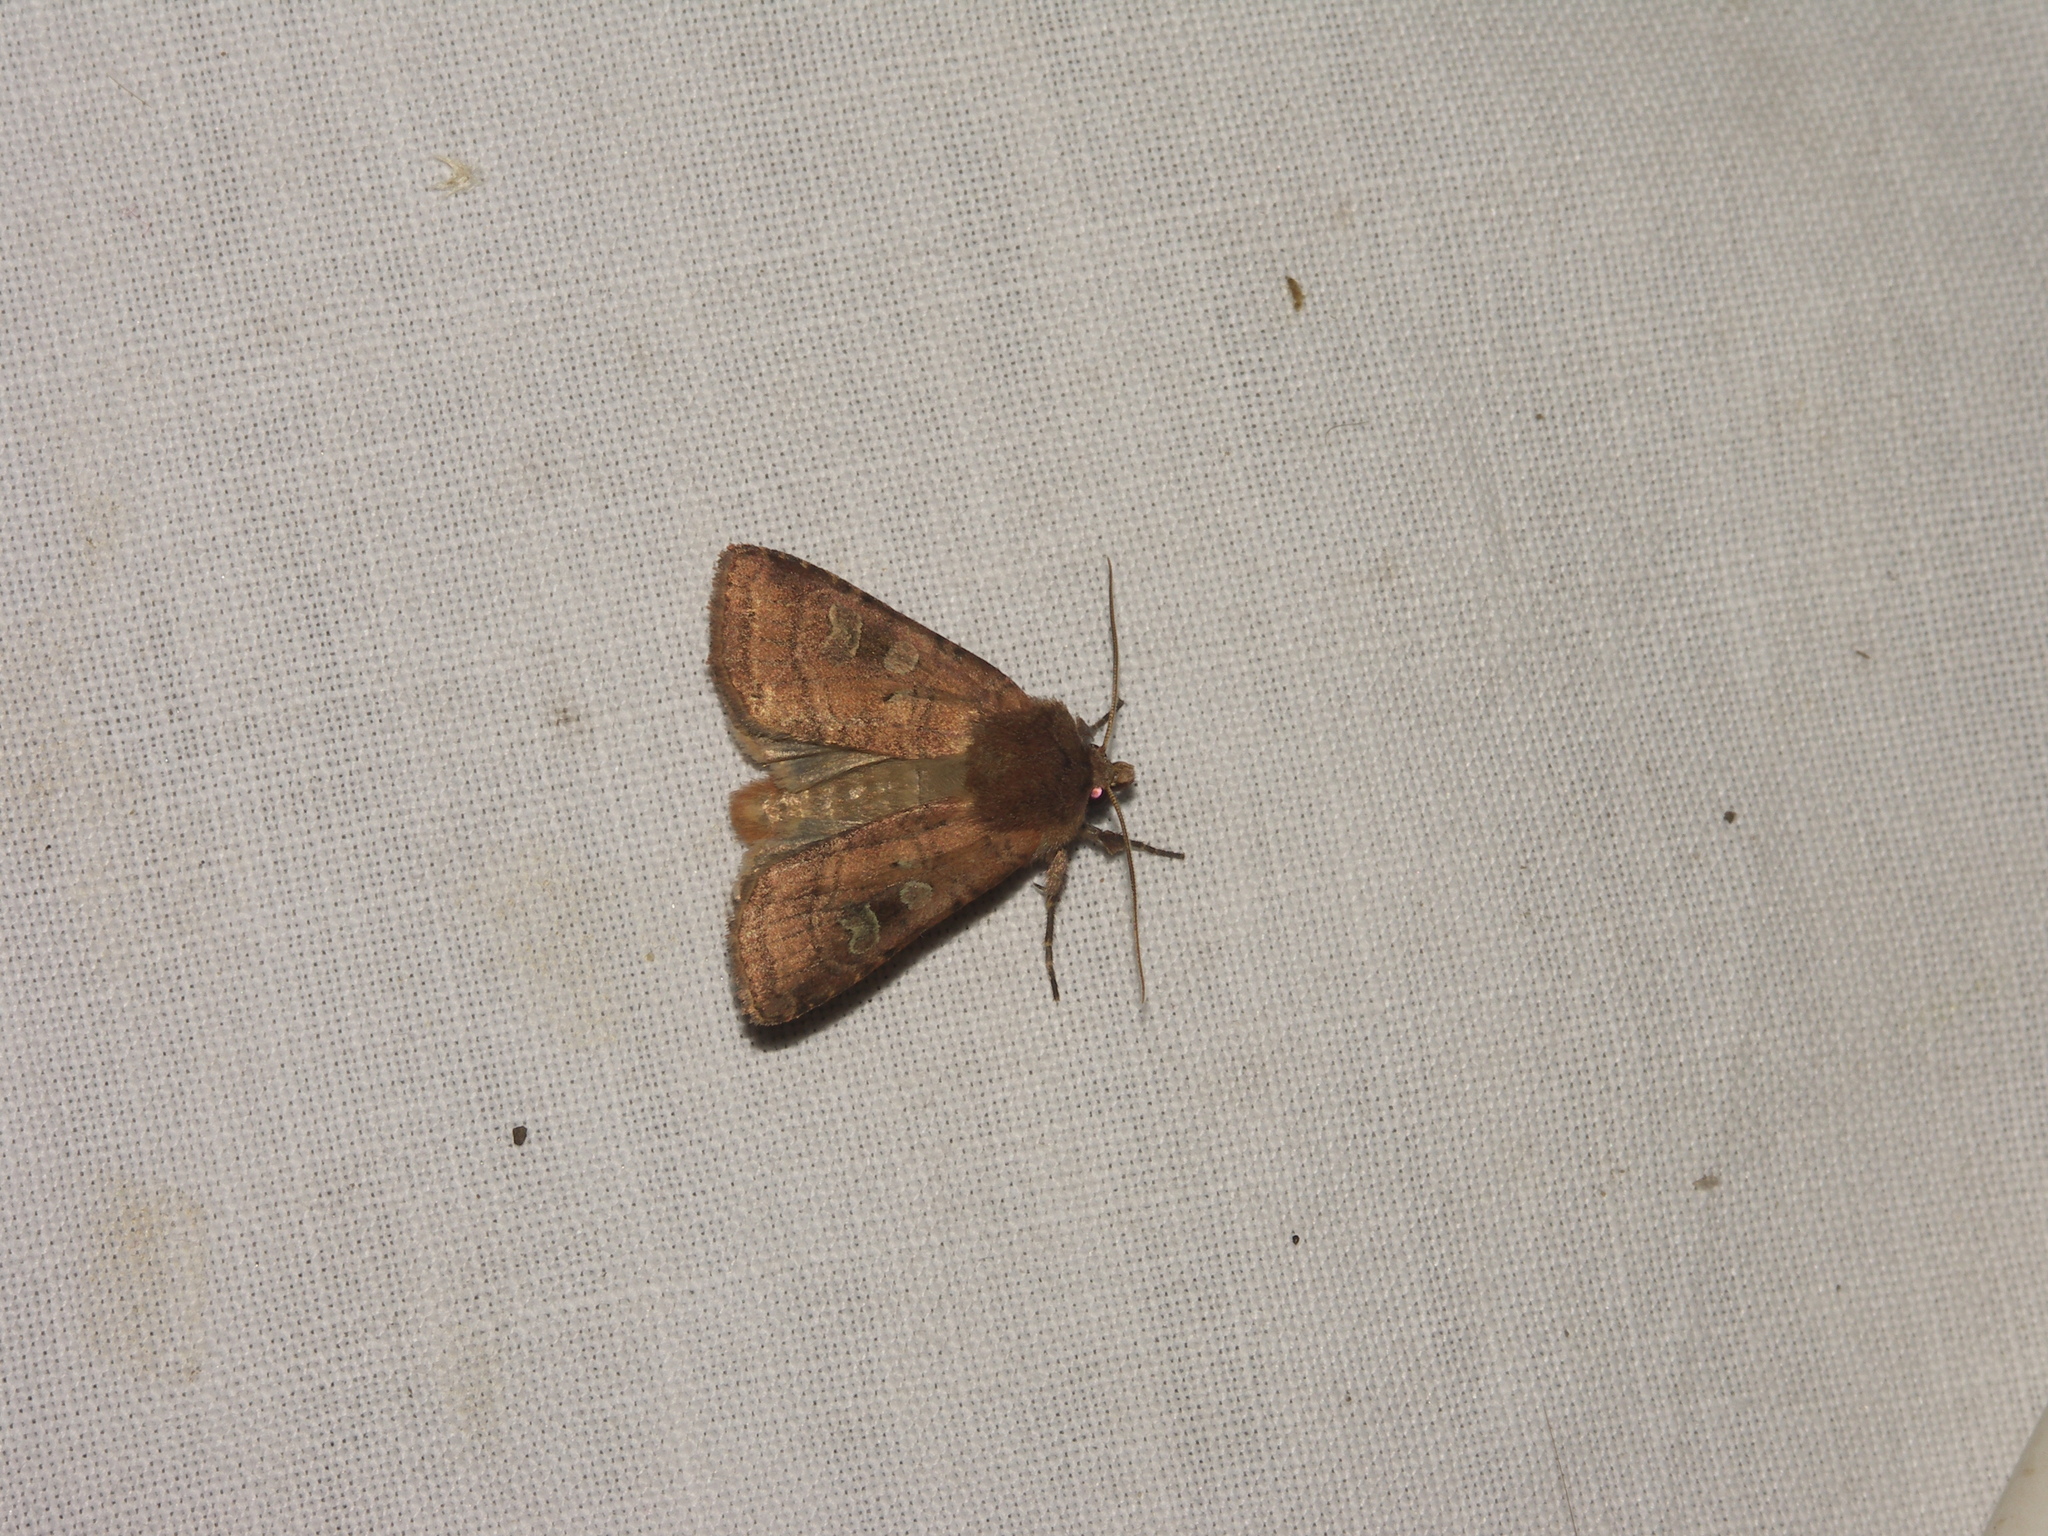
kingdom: Animalia
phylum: Arthropoda
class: Insecta
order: Lepidoptera
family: Noctuidae
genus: Diarsia
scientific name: Diarsia rubi
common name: Small square-spot
